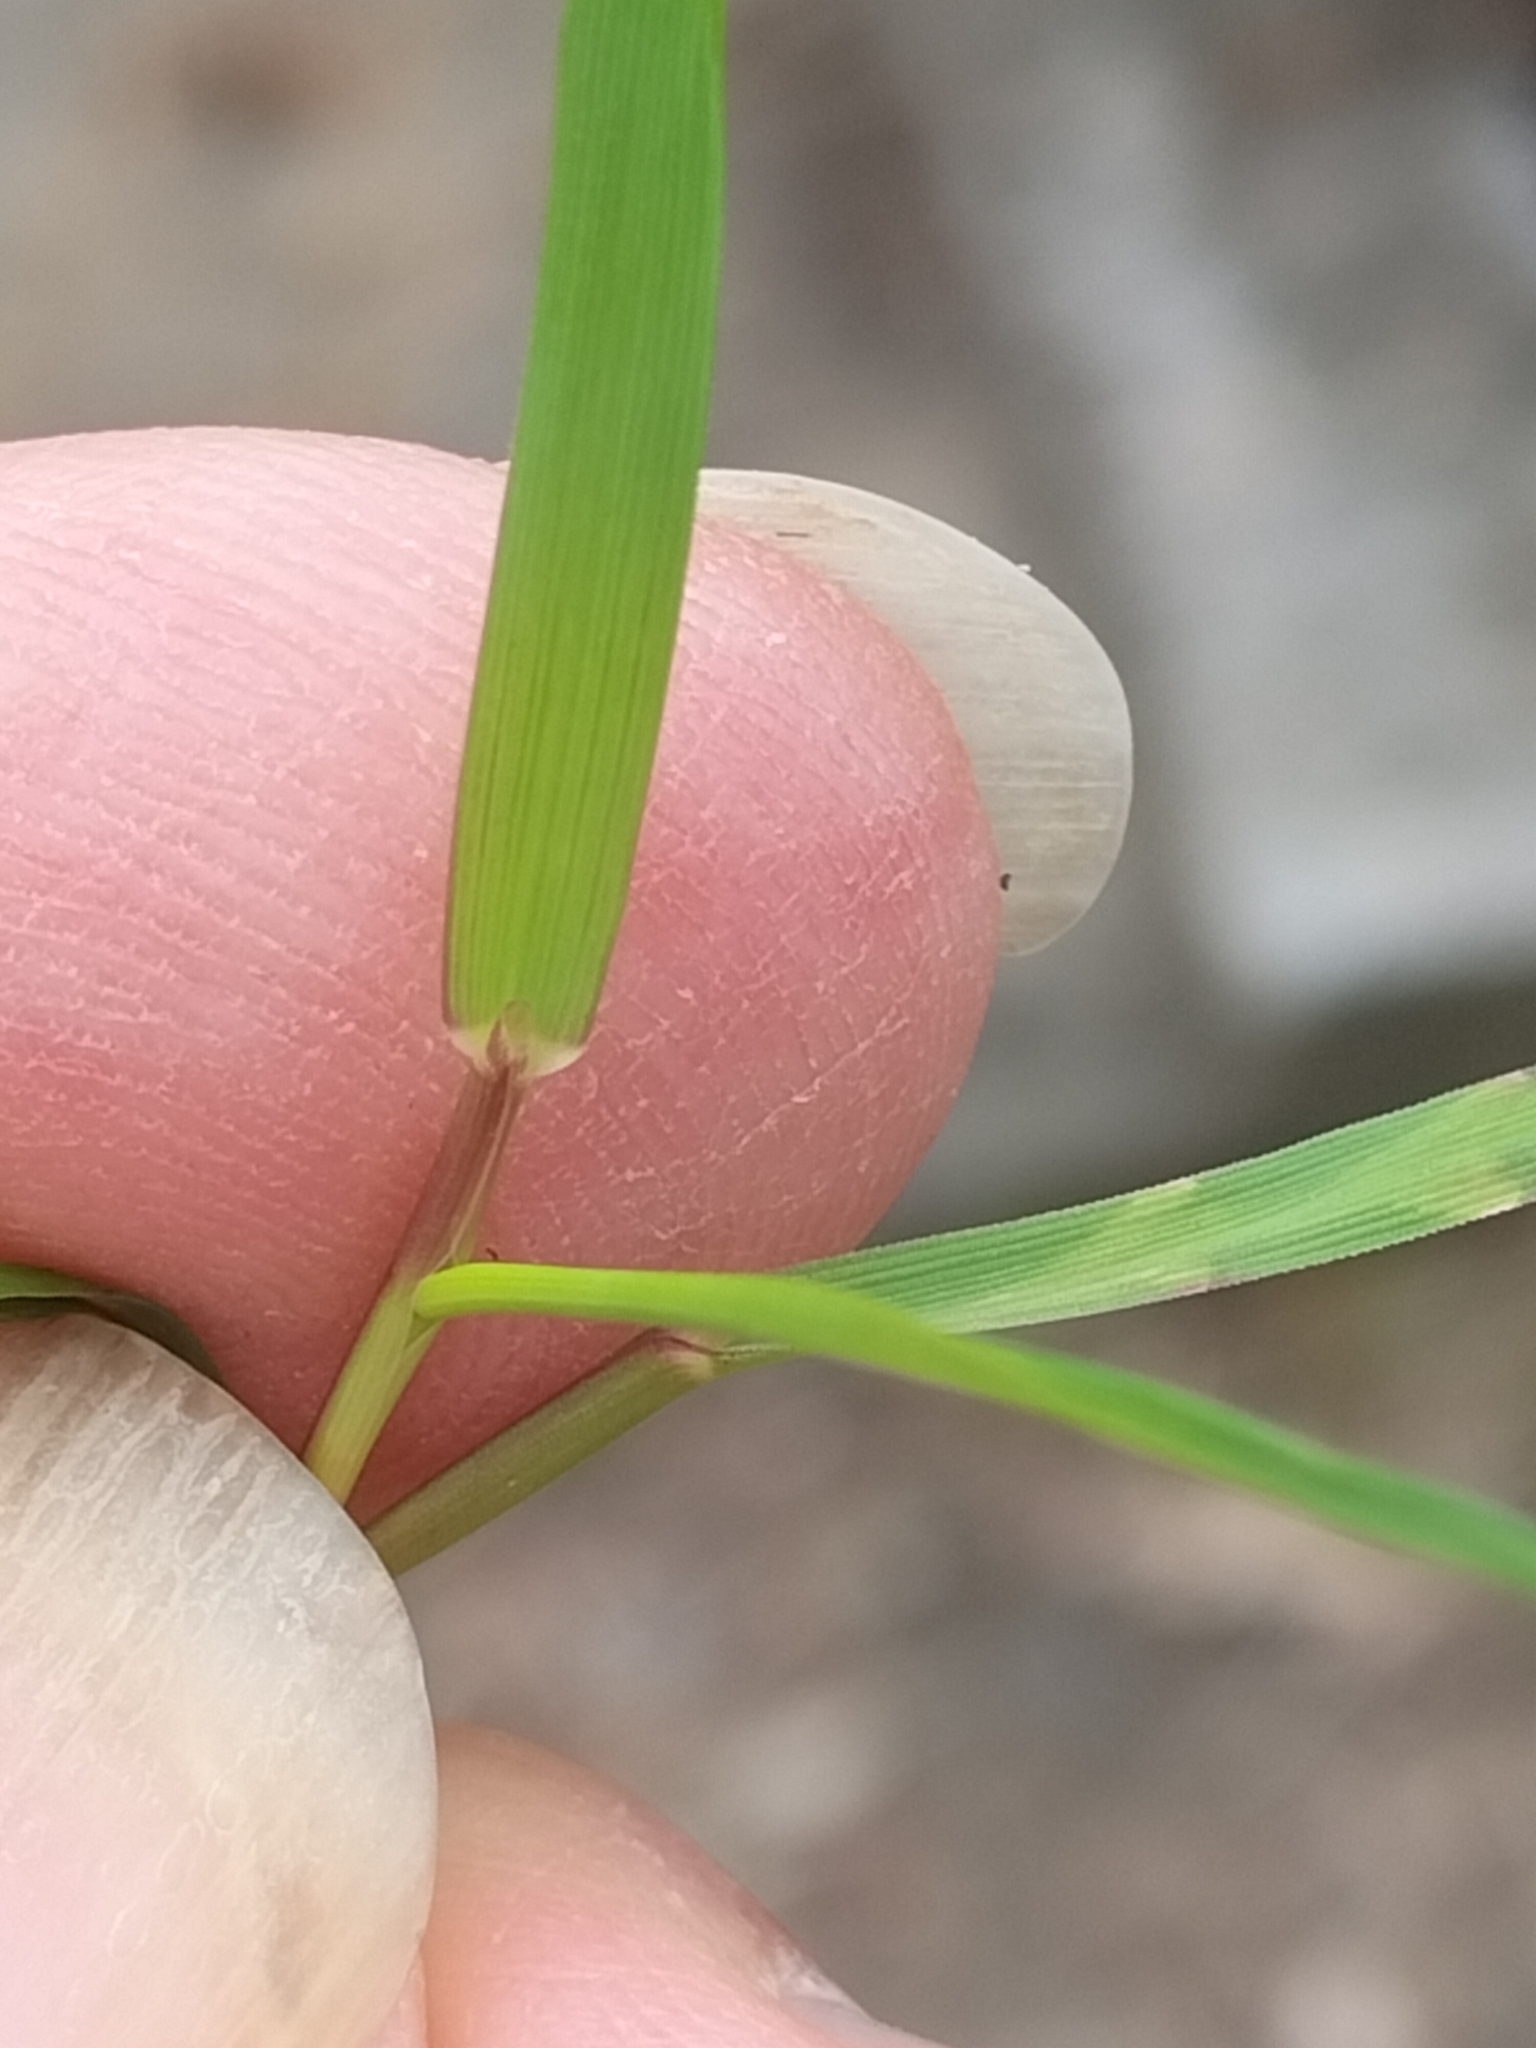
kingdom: Plantae
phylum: Tracheophyta
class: Liliopsida
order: Poales
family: Poaceae
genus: Agrostis
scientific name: Agrostis capillaris
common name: Colonial bentgrass
